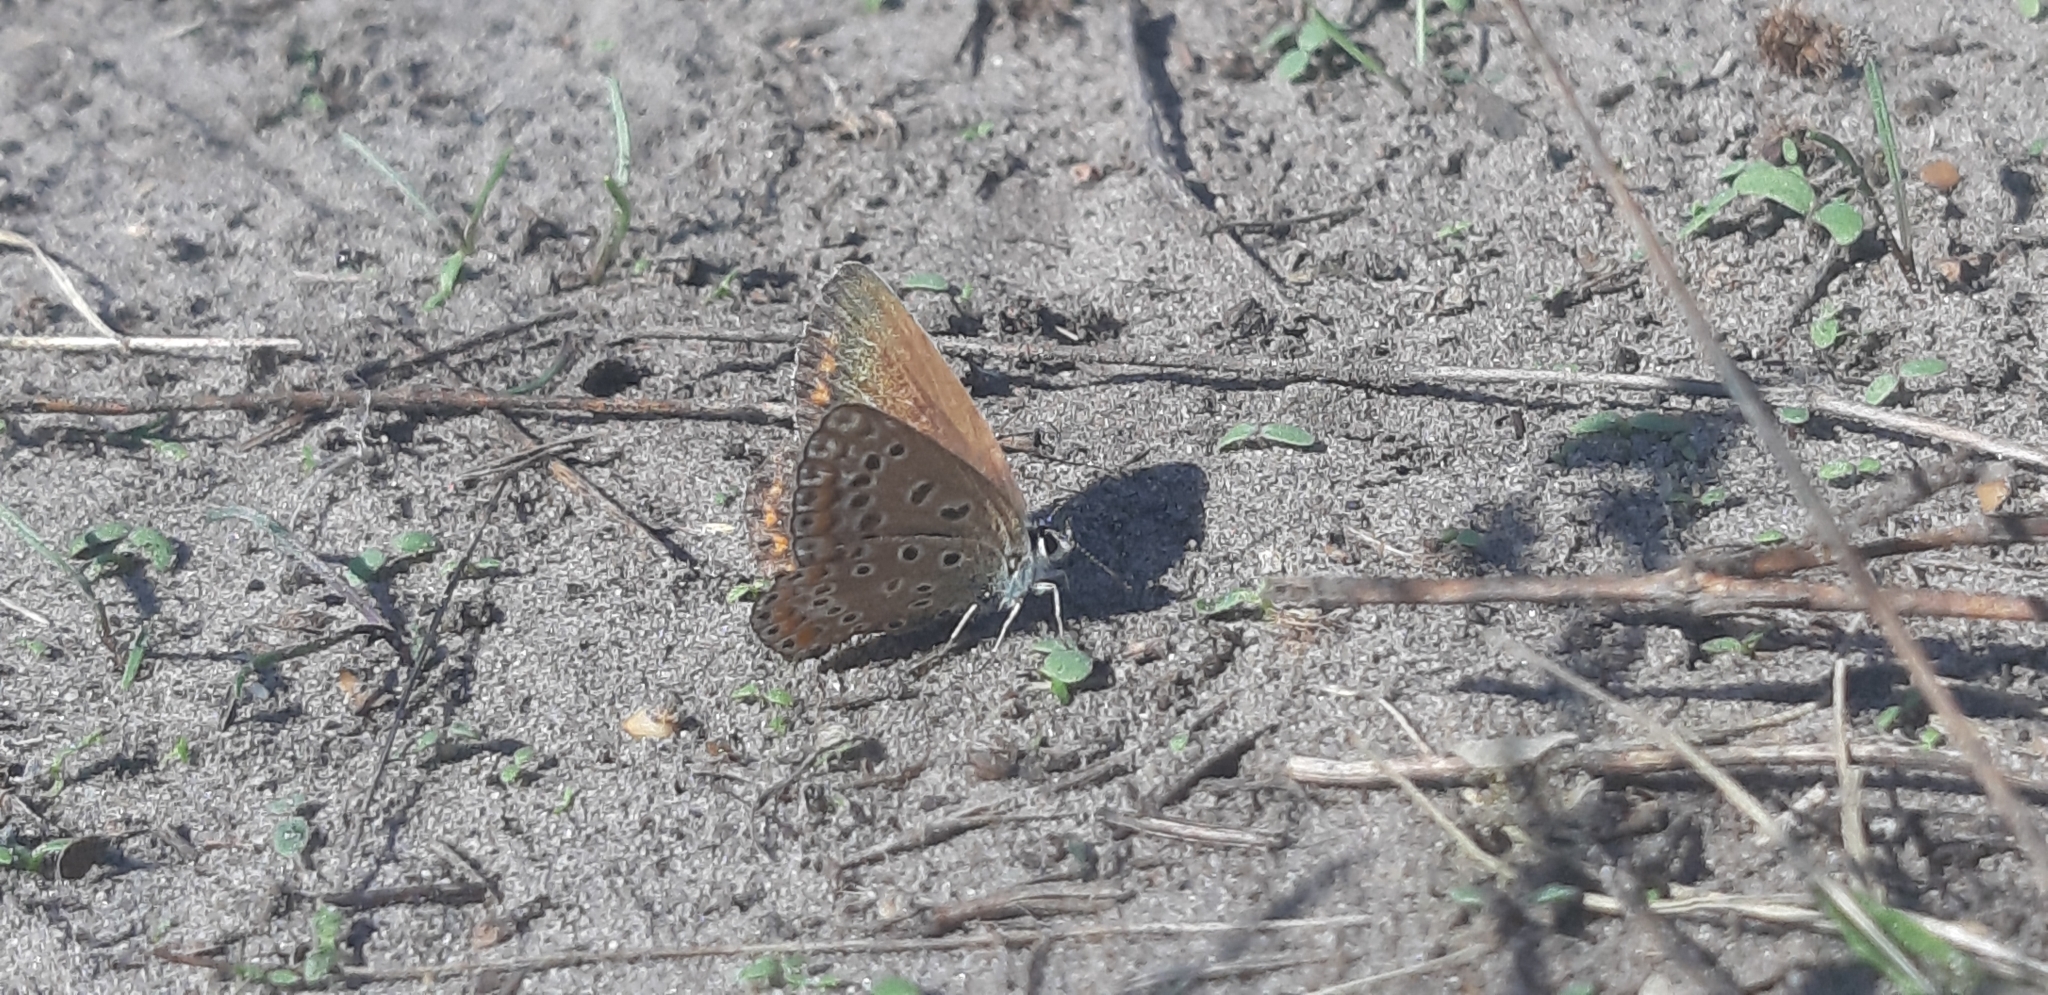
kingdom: Animalia
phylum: Arthropoda
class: Insecta
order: Lepidoptera
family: Lycaenidae
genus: Polyommatus
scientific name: Polyommatus icarus
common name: Common blue
